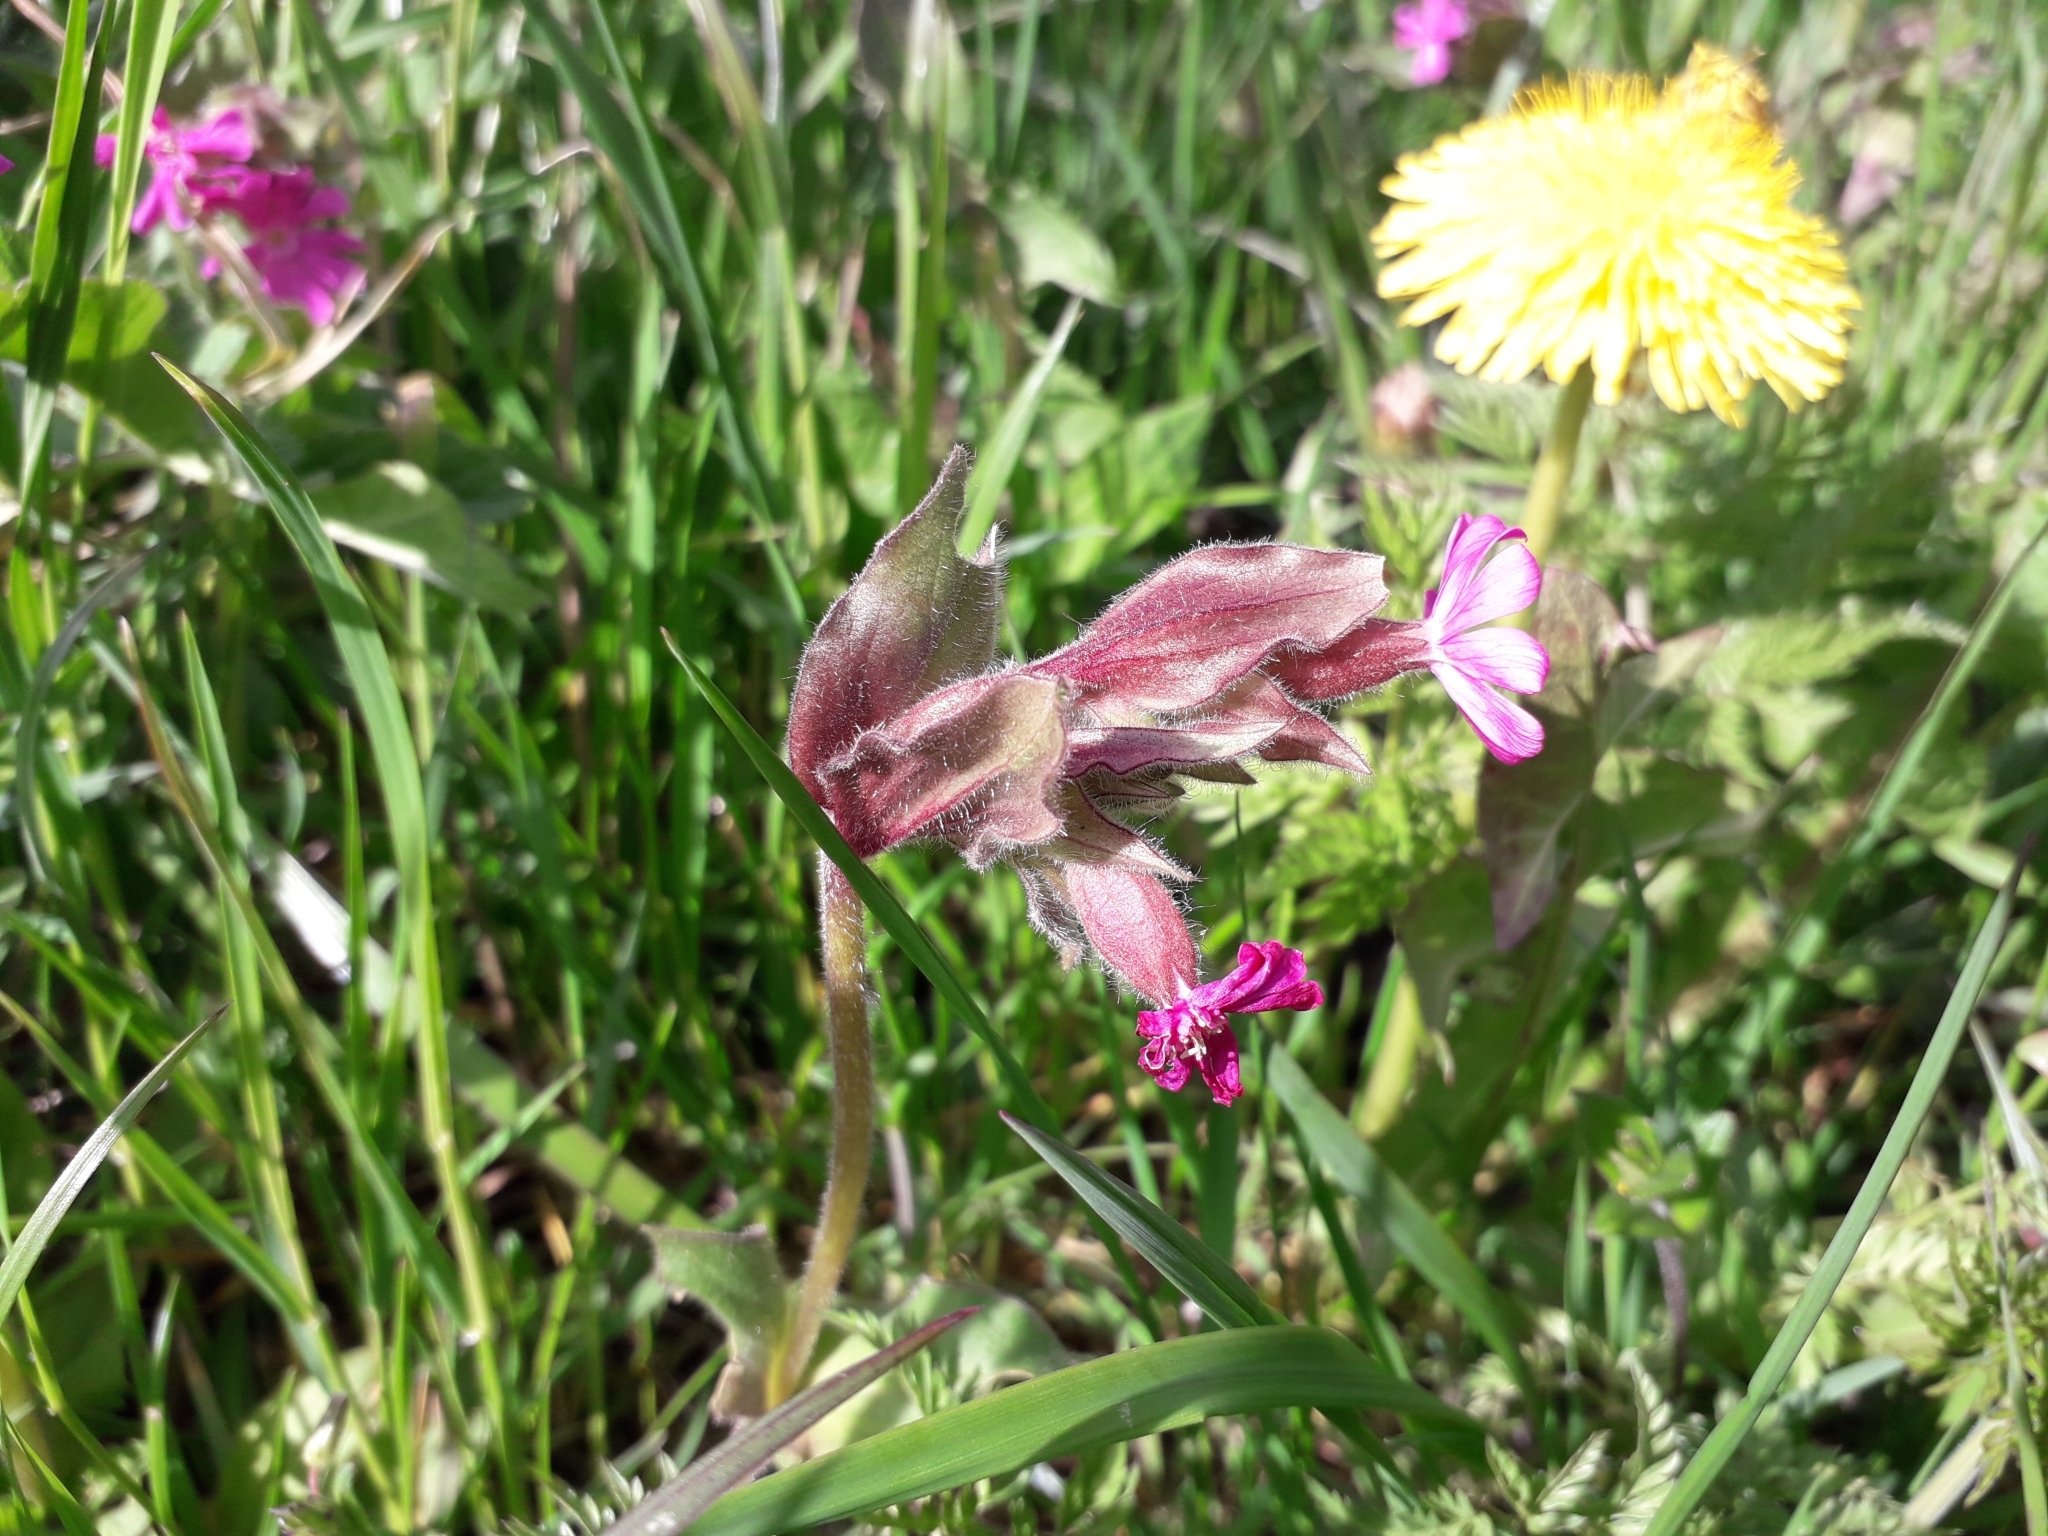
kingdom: Plantae
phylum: Tracheophyta
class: Magnoliopsida
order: Caryophyllales
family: Caryophyllaceae
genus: Silene
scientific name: Silene dioica
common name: Red campion
